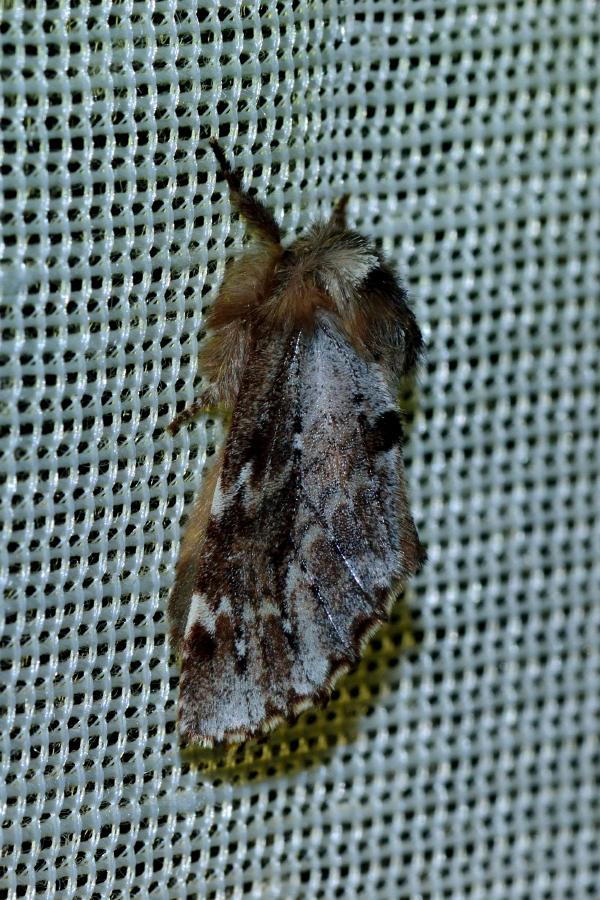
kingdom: Animalia
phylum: Arthropoda
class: Insecta
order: Lepidoptera
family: Notodontidae
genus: Odontosia
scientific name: Odontosia sieversii
